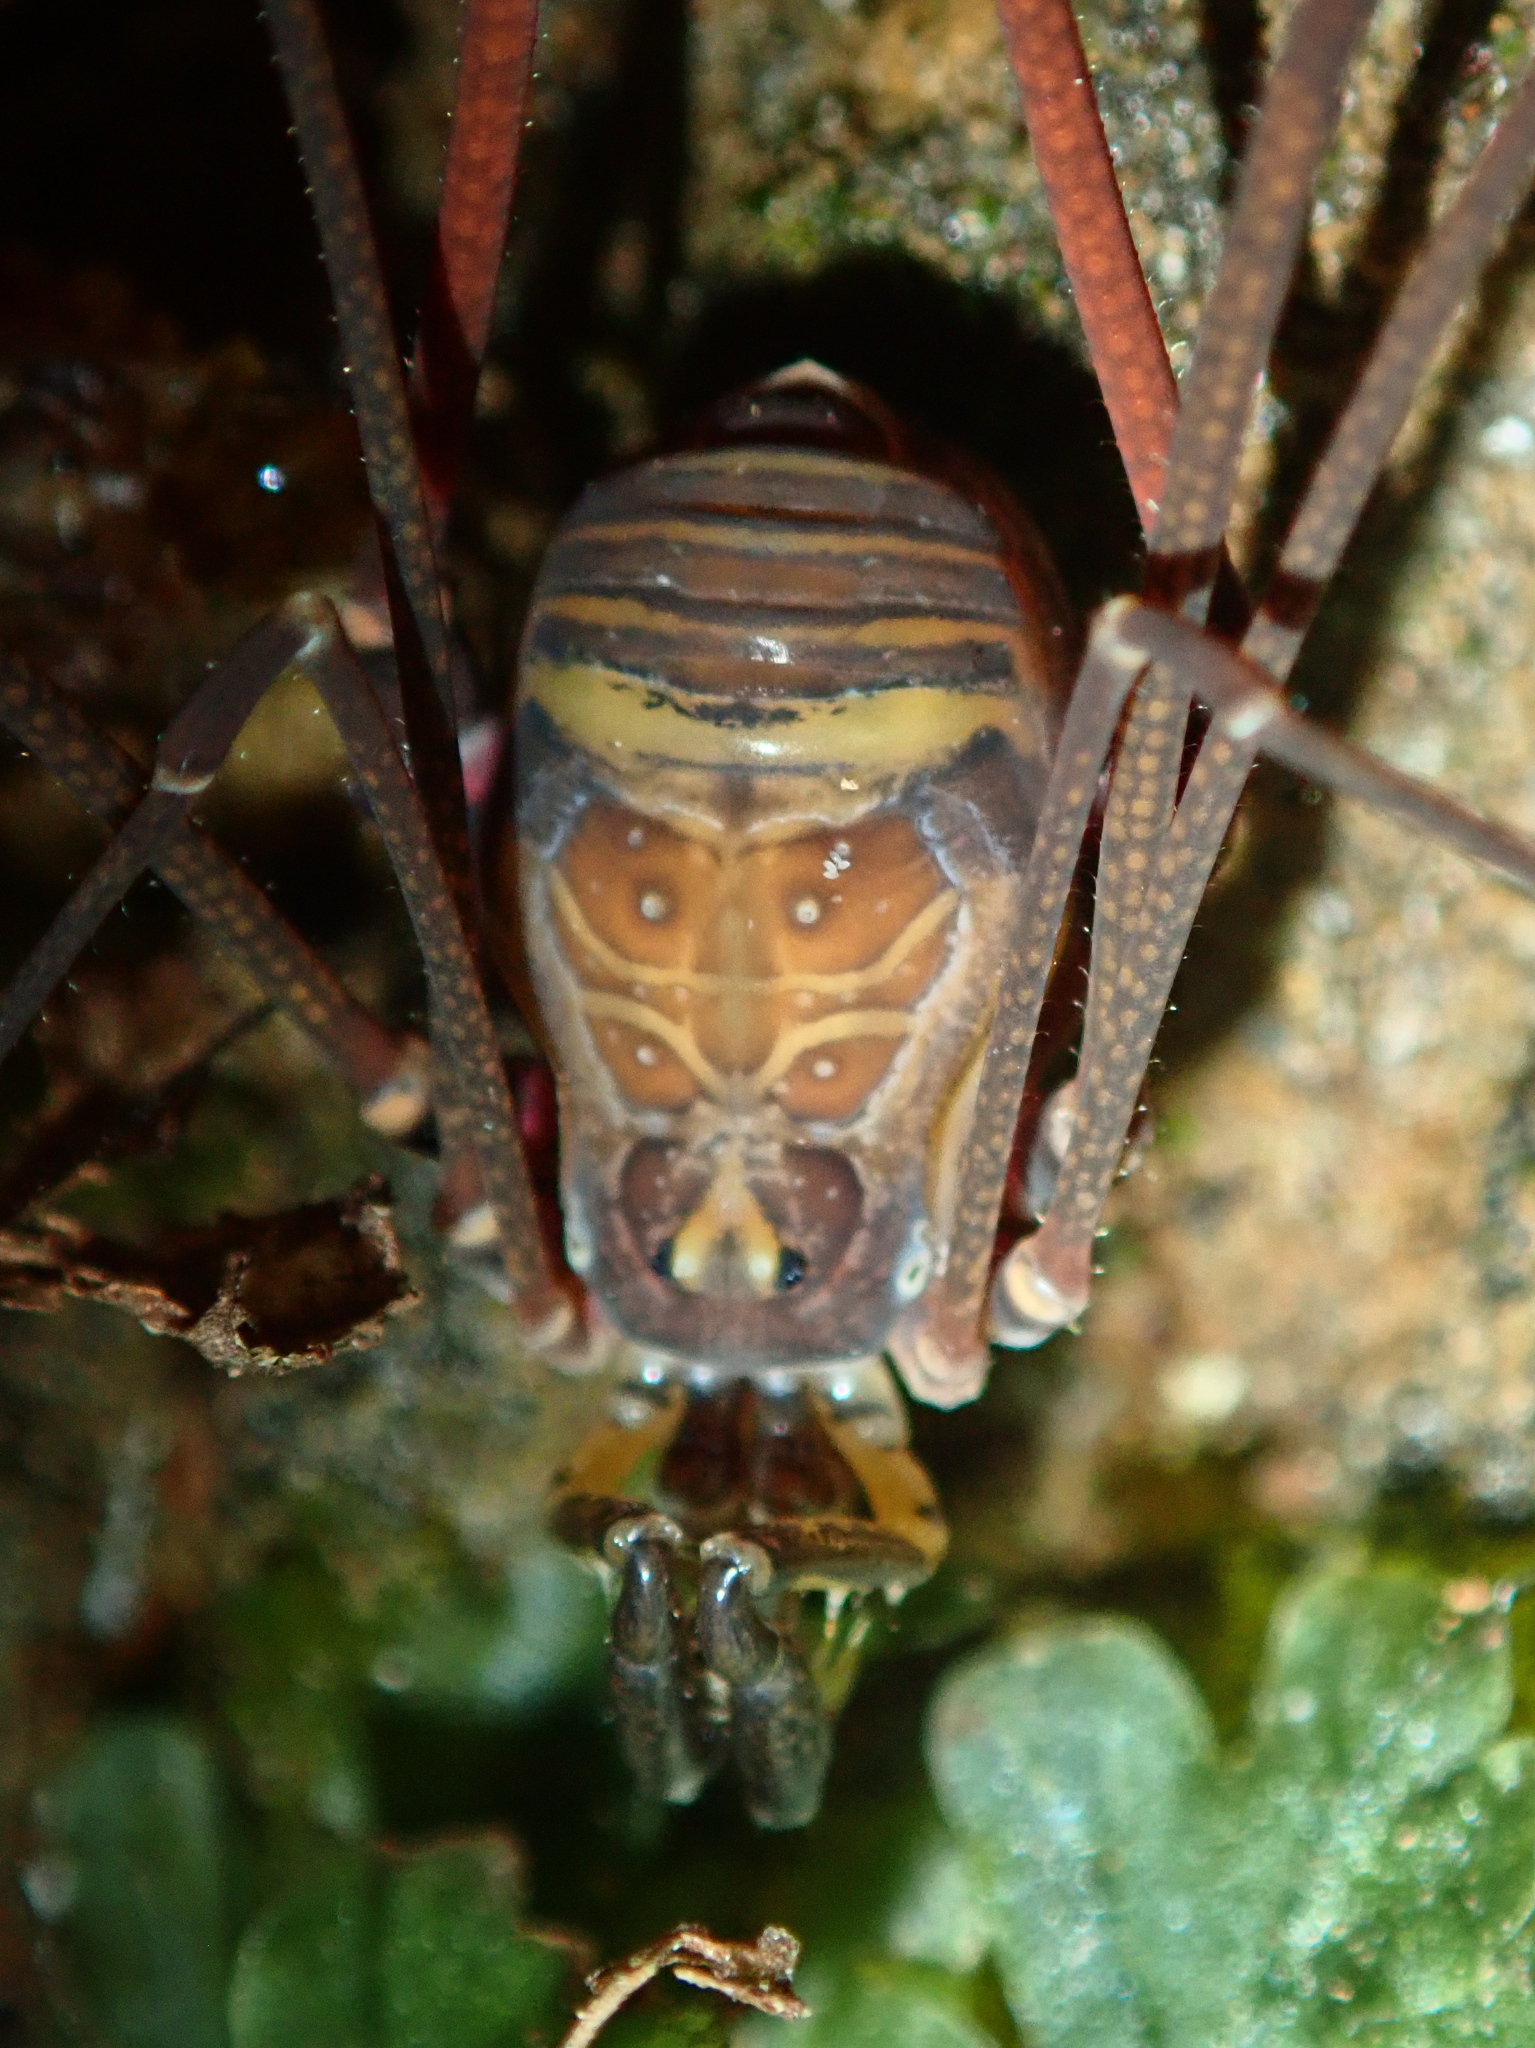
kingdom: Animalia
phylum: Arthropoda
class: Arachnida
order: Opiliones
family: Gonyleptidae
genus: Serracutisoma
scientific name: Serracutisoma inerme
